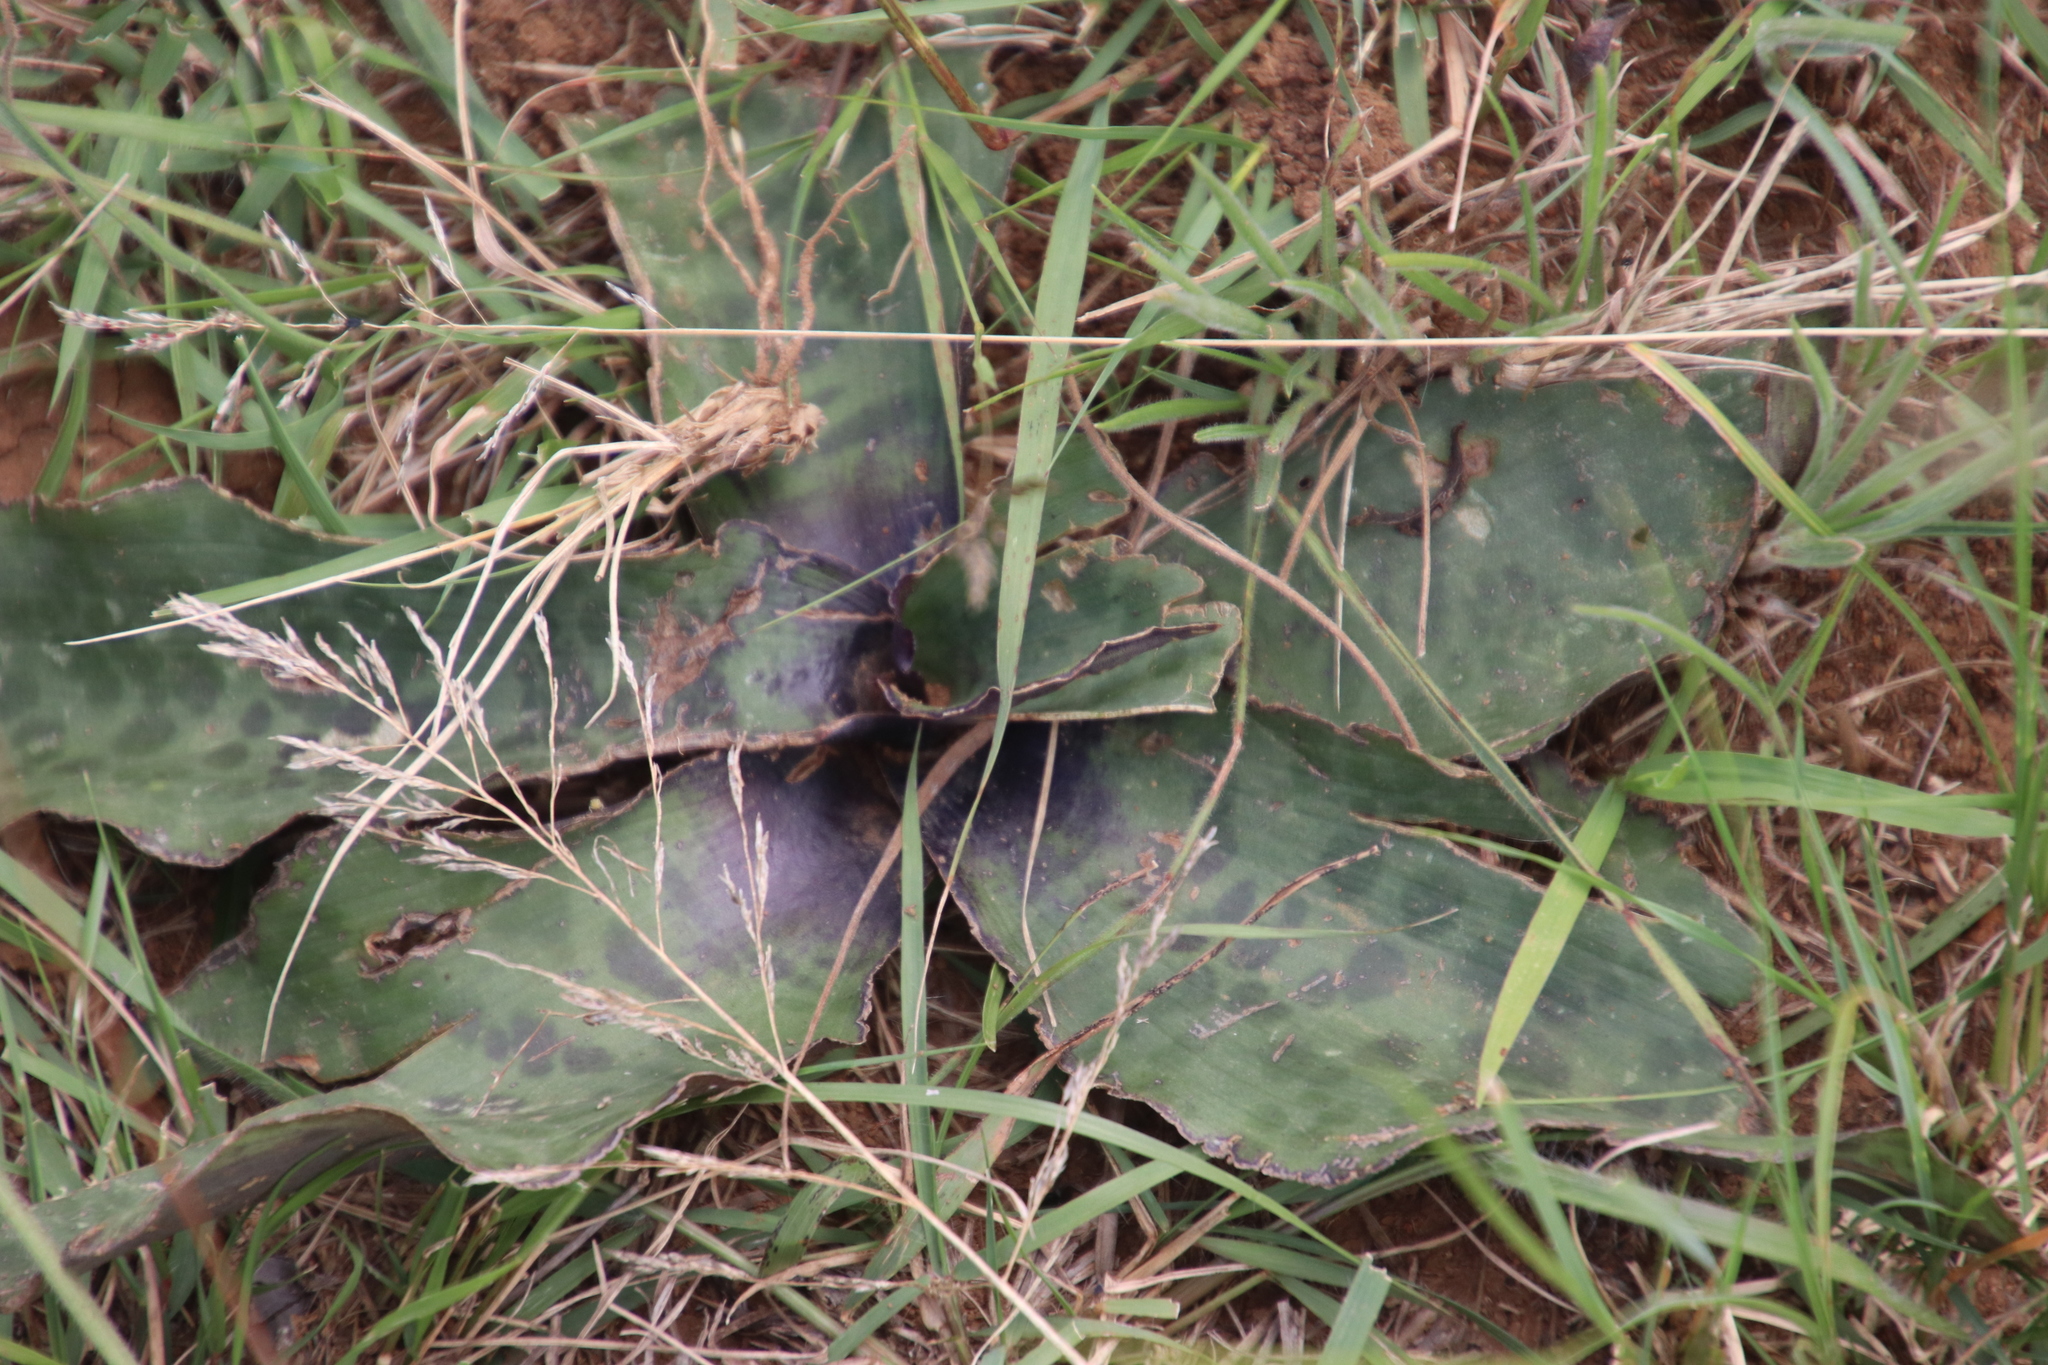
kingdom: Plantae
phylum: Tracheophyta
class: Liliopsida
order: Asparagales
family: Asparagaceae
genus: Ledebouria
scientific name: Ledebouria inquinata
